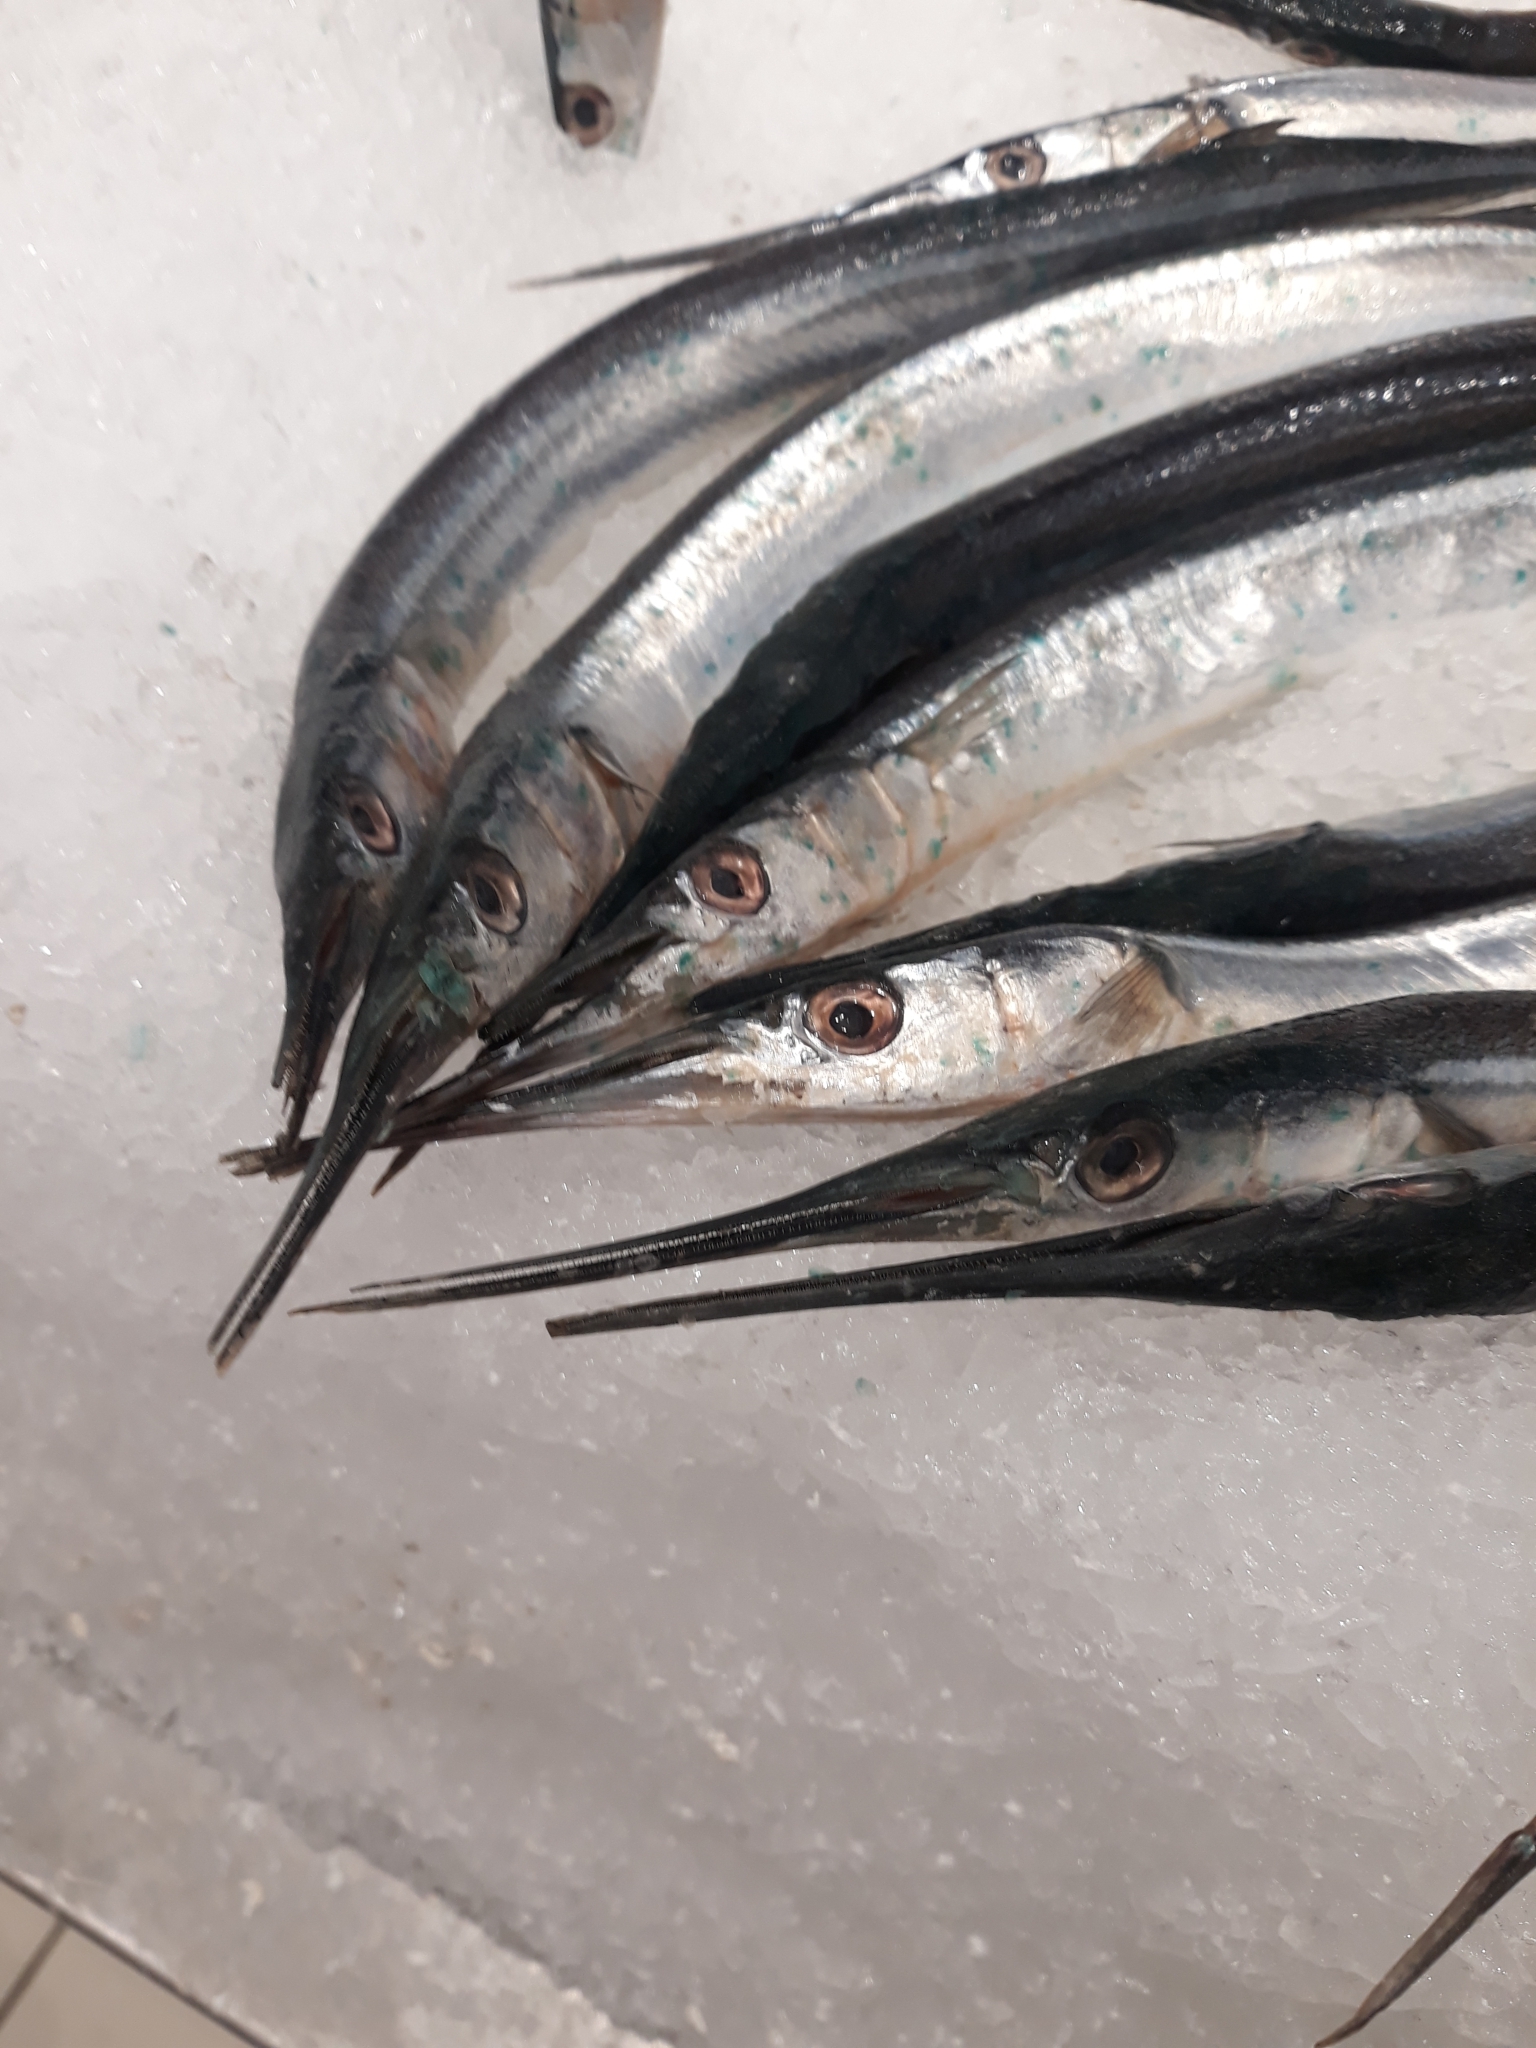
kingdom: Animalia
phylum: Chordata
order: Beloniformes
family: Belonidae
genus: Belone
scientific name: Belone belone
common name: Garfish
